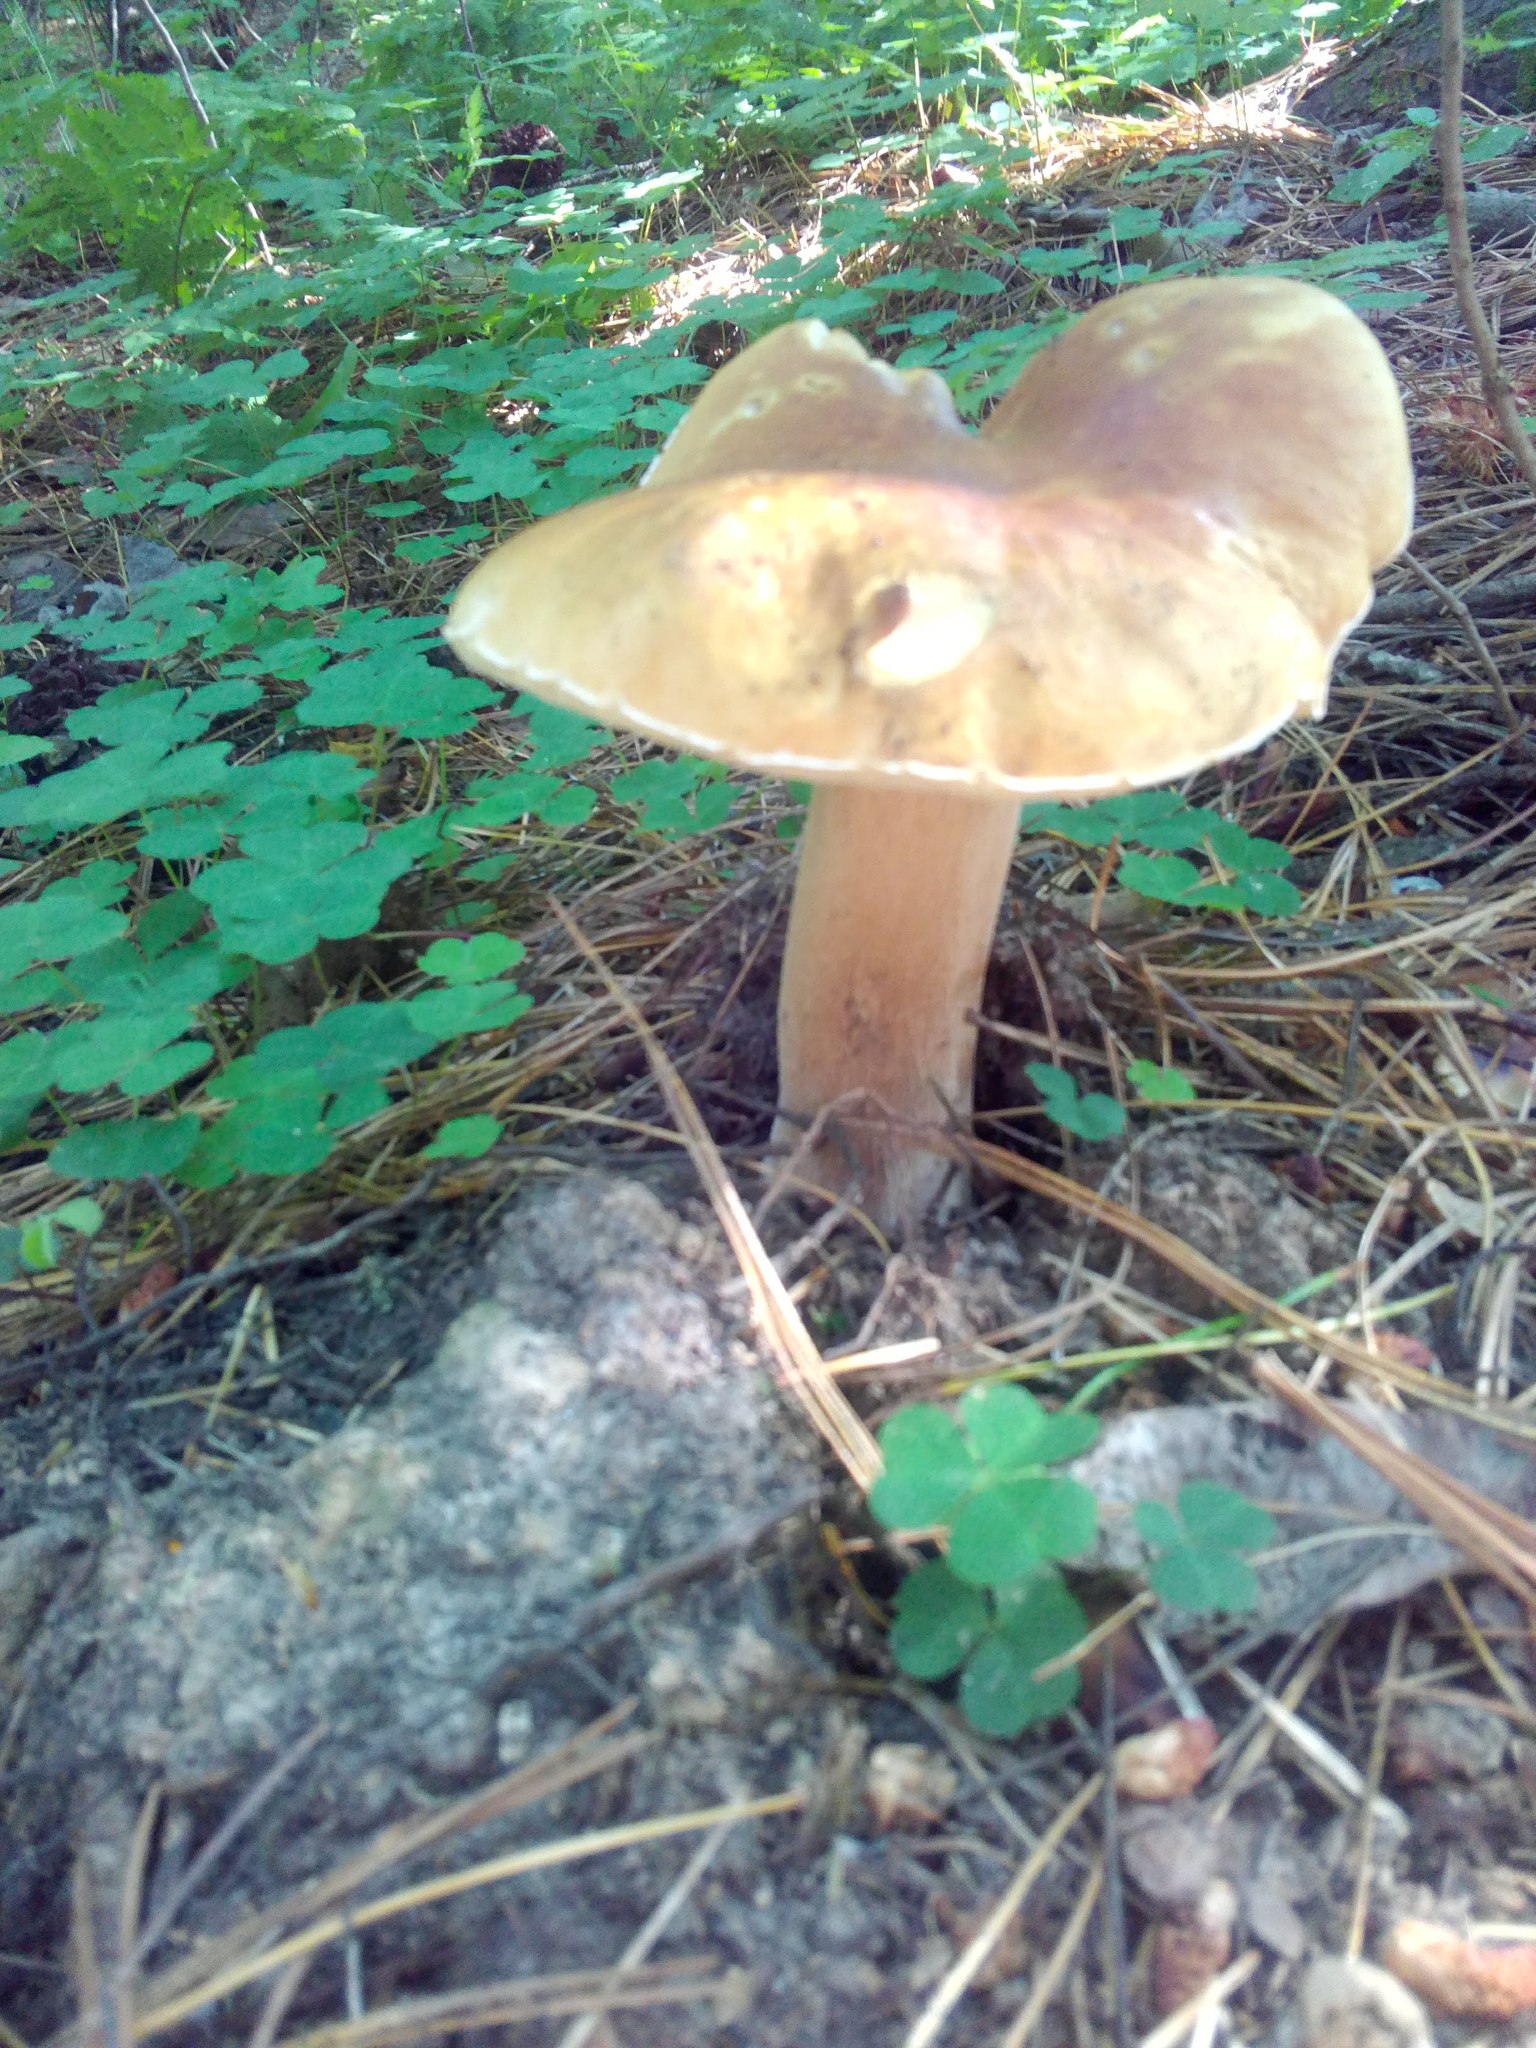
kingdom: Fungi
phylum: Basidiomycota
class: Agaricomycetes
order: Boletales
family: Boletaceae
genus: Boletus
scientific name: Boletus edulis
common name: Cep
